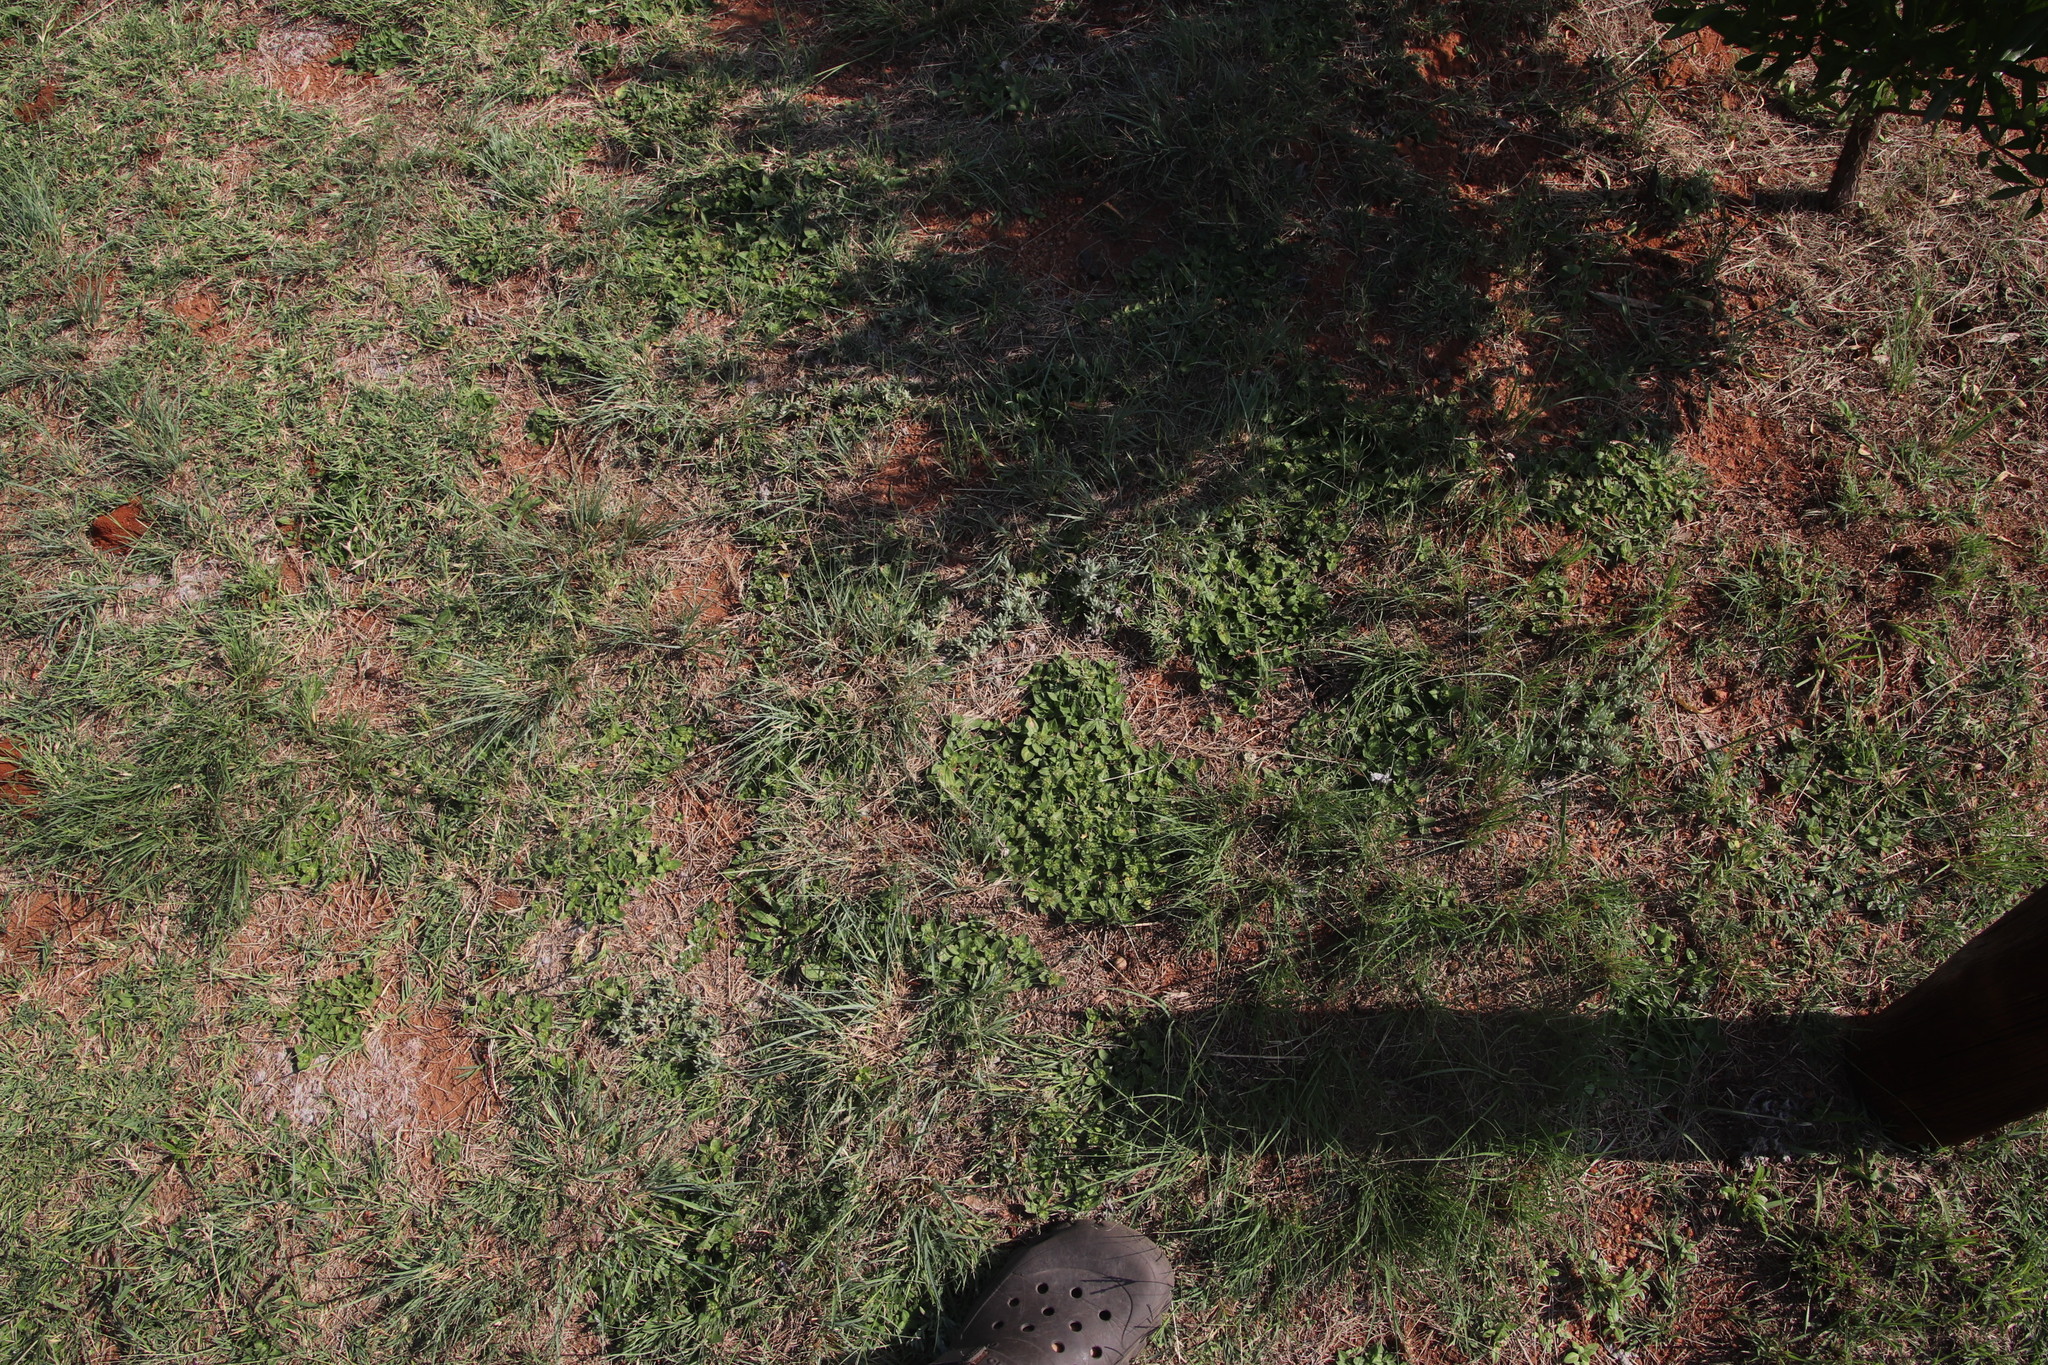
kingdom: Plantae
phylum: Tracheophyta
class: Magnoliopsida
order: Gentianales
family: Rubiaceae
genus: Richardia
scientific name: Richardia brasiliensis
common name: Tropical mexican clover
